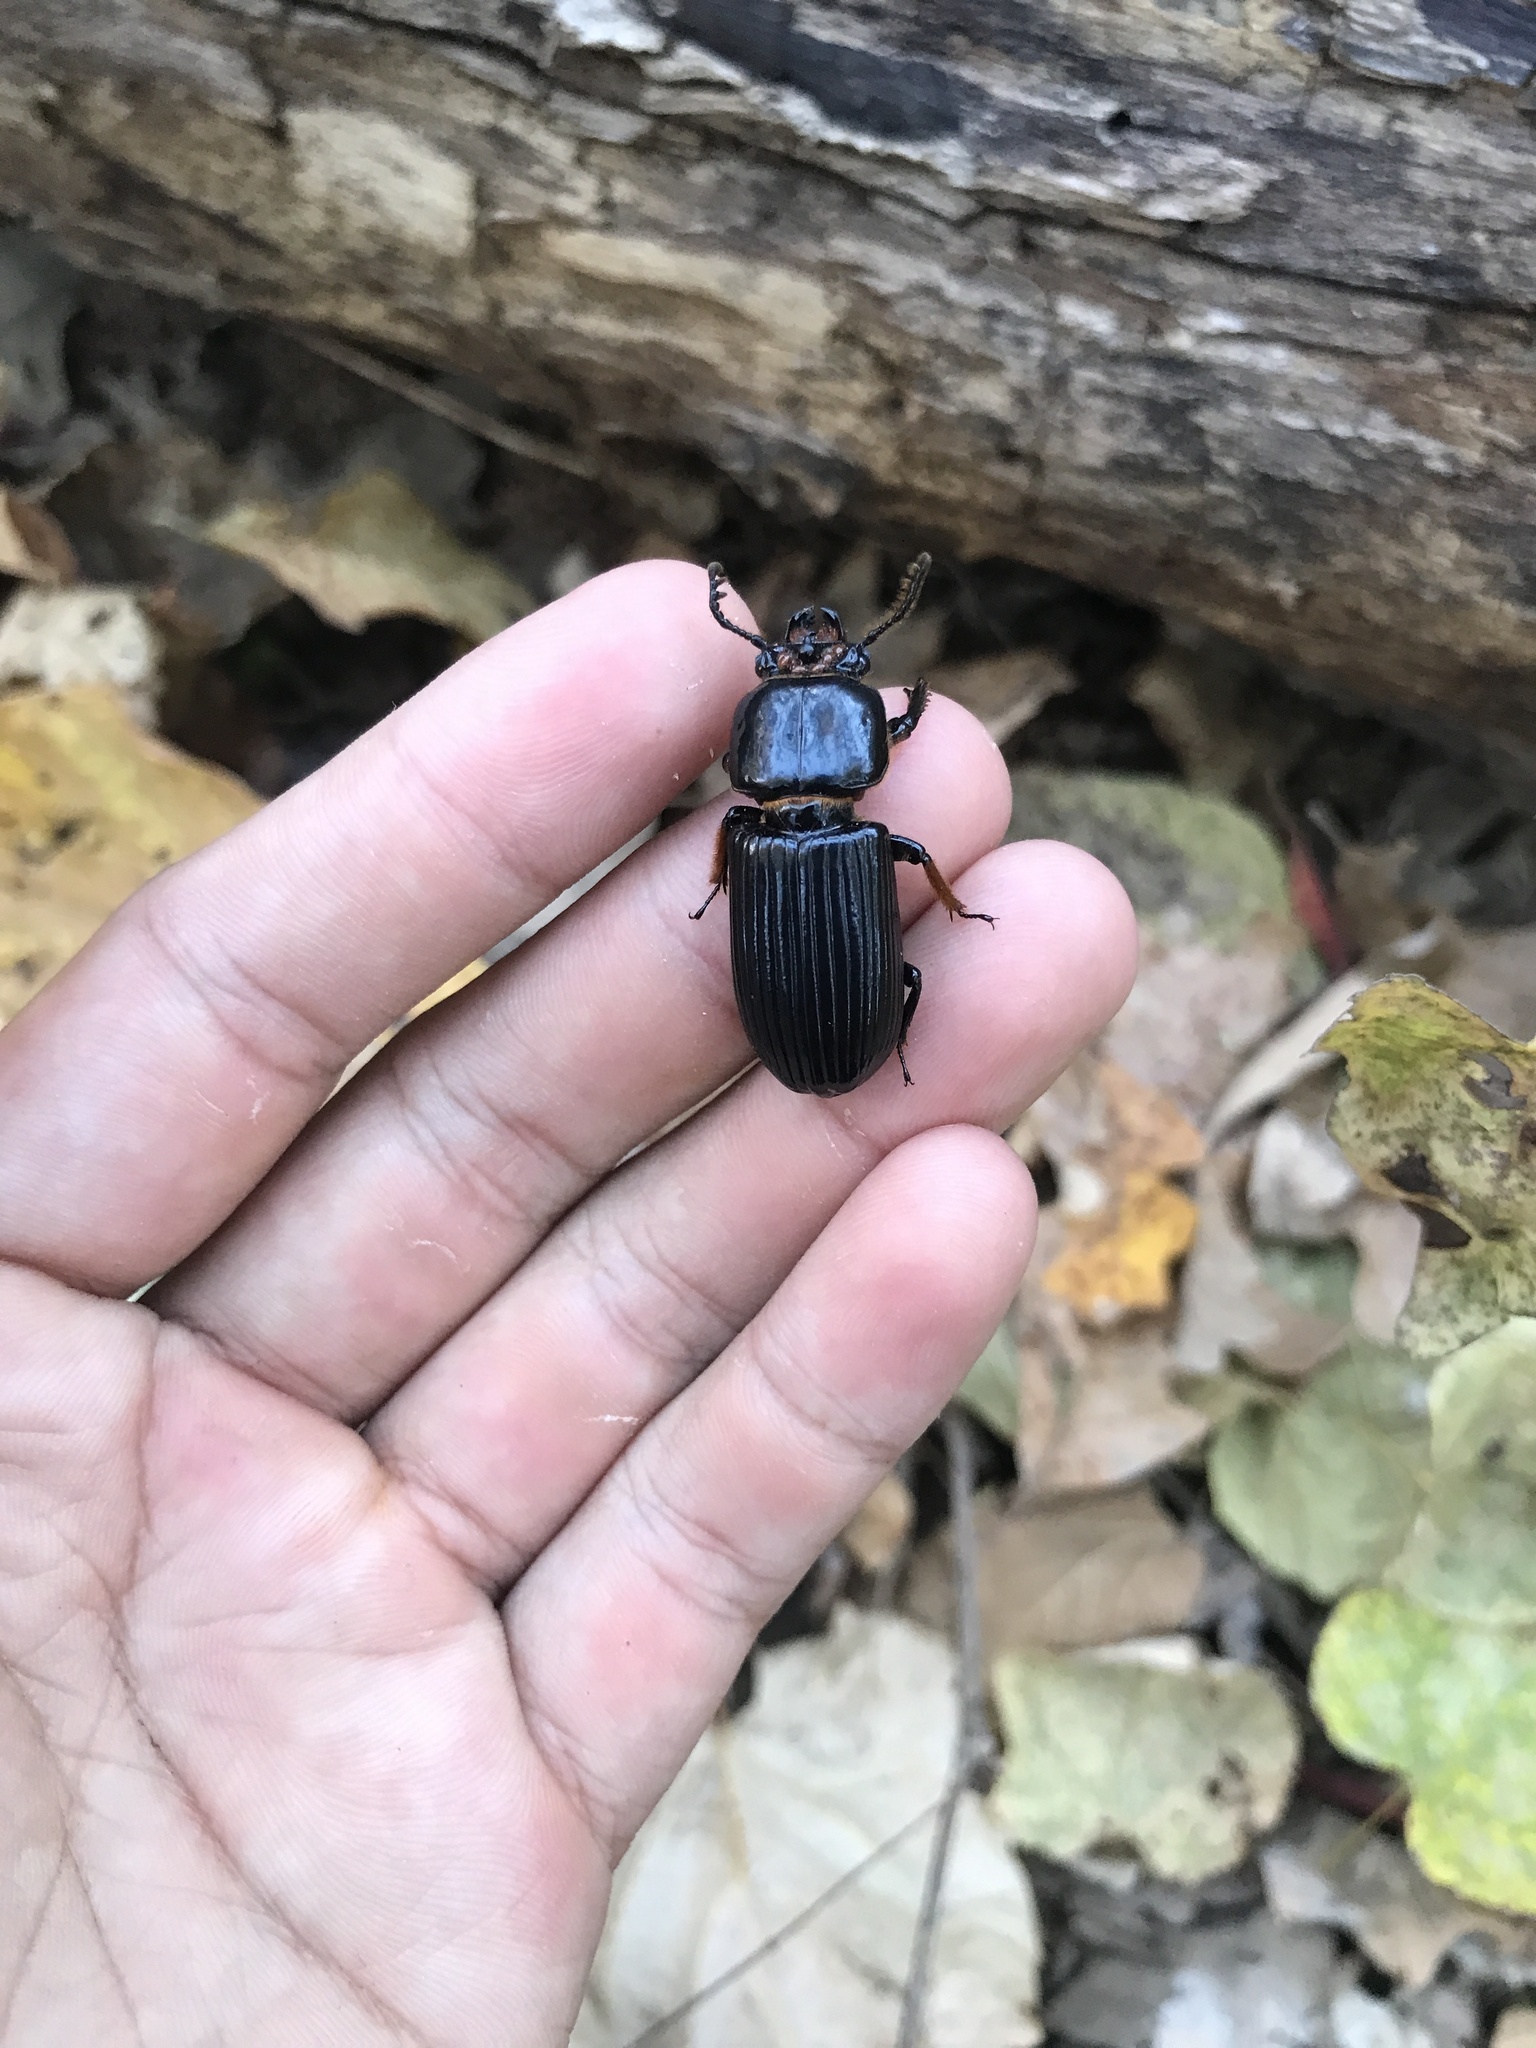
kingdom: Animalia
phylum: Arthropoda
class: Insecta
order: Coleoptera
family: Passalidae
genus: Odontotaenius
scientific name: Odontotaenius disjunctus
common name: Patent leather beetle
